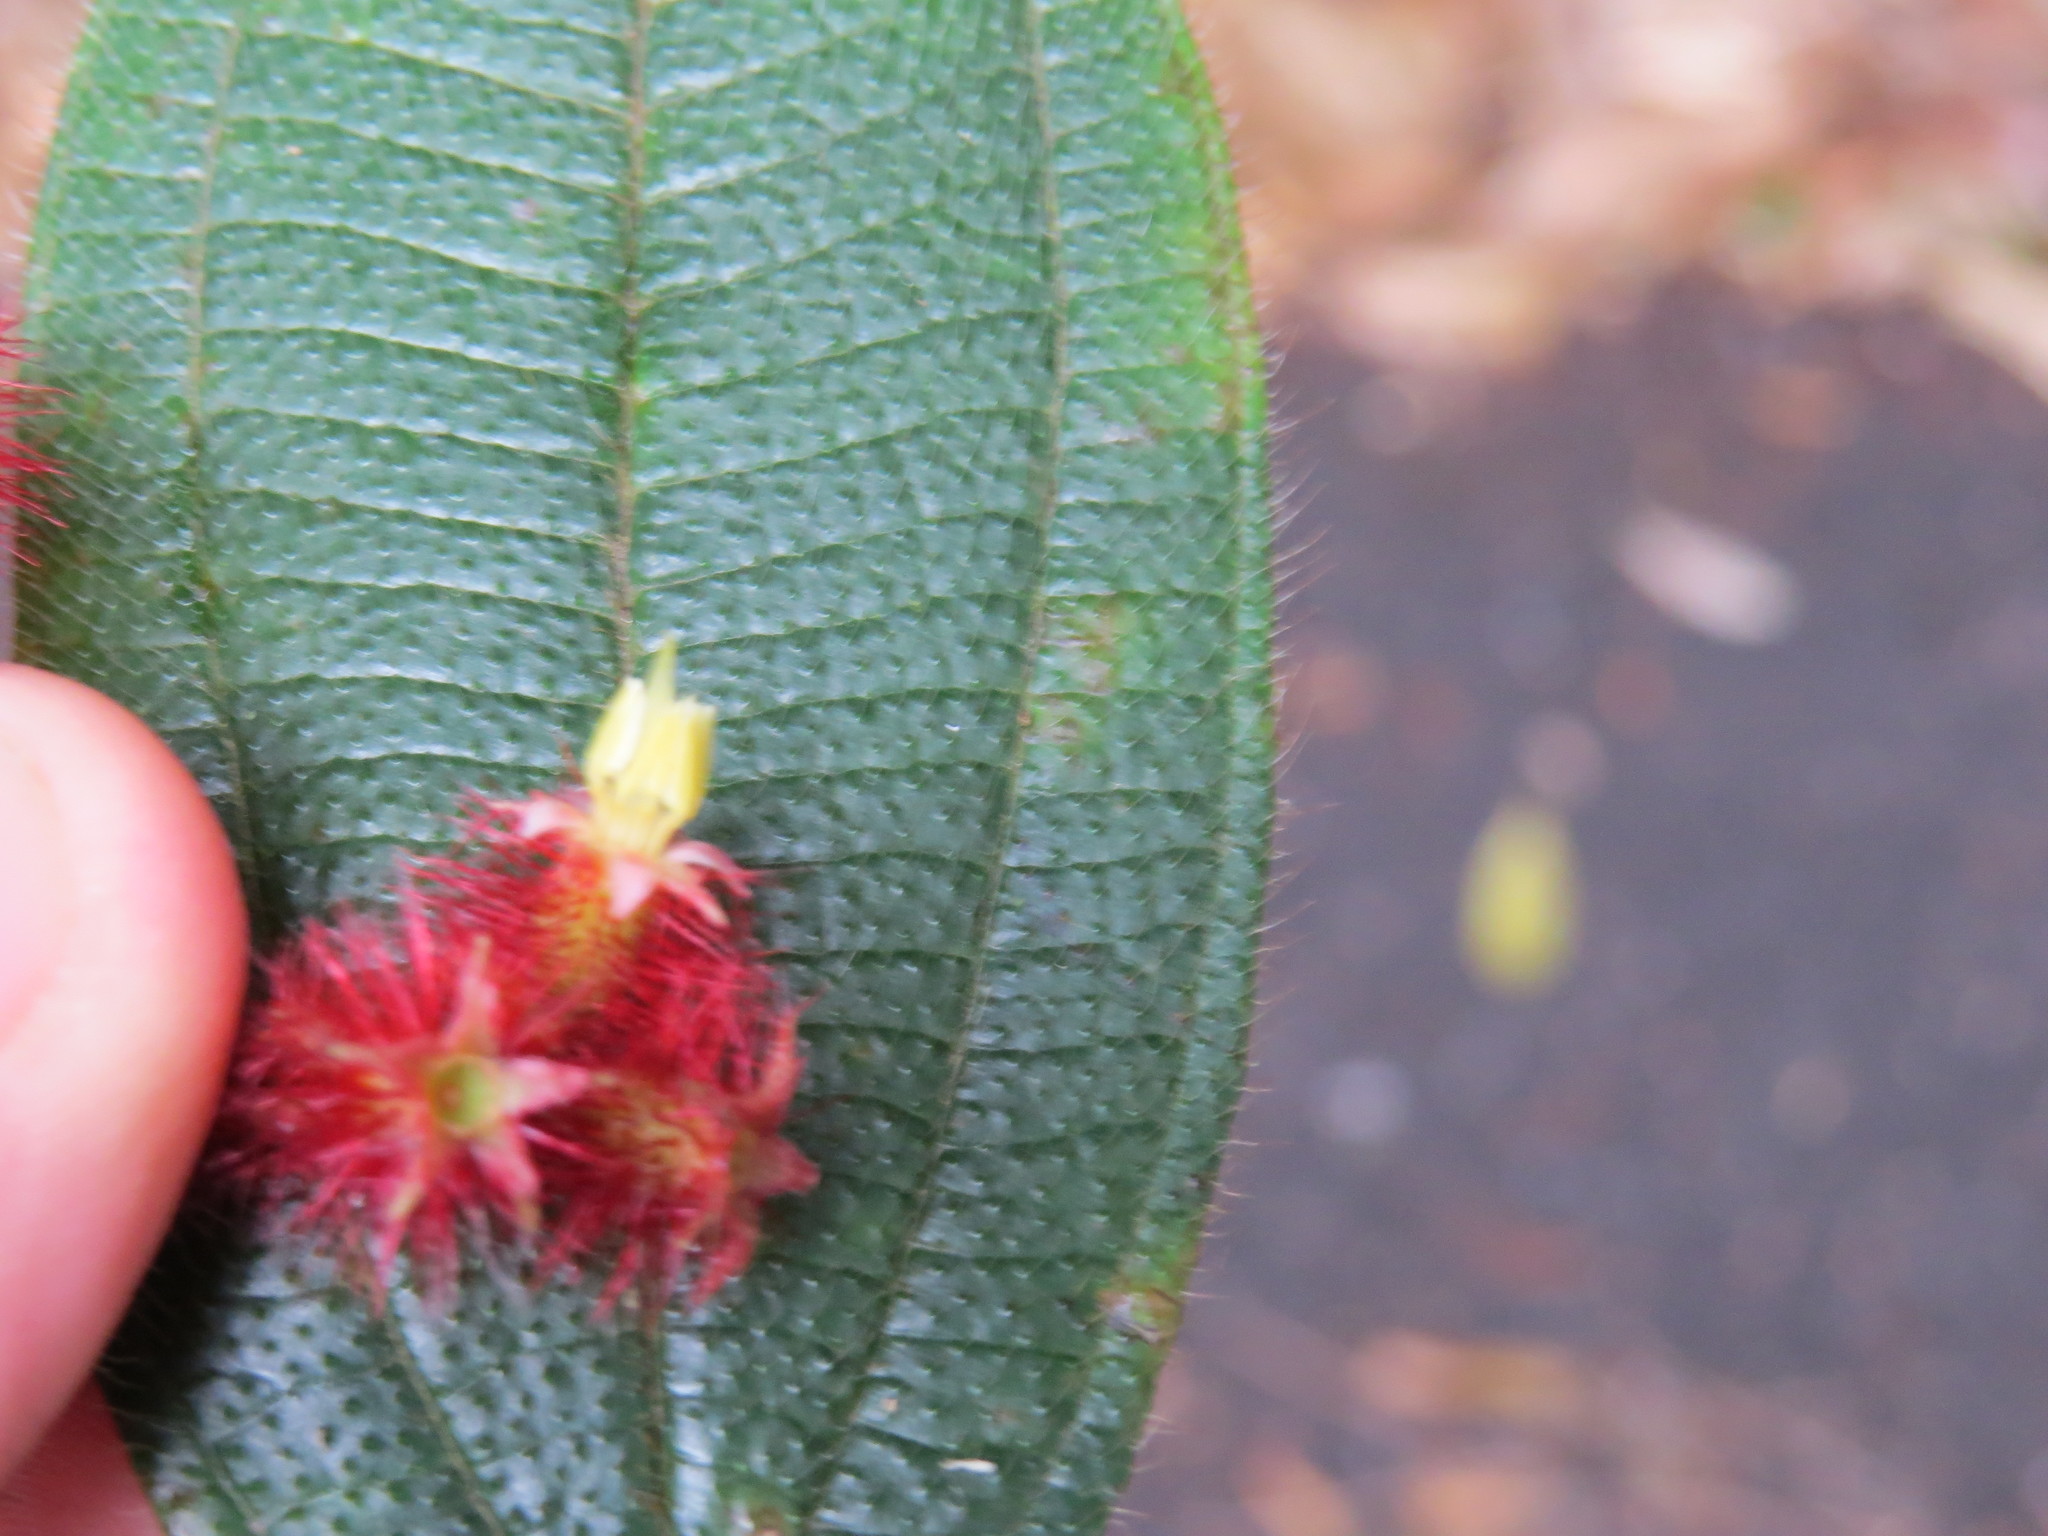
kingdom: Plantae
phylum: Tracheophyta
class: Magnoliopsida
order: Myrtales
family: Melastomataceae
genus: Miconia
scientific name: Miconia nianga
